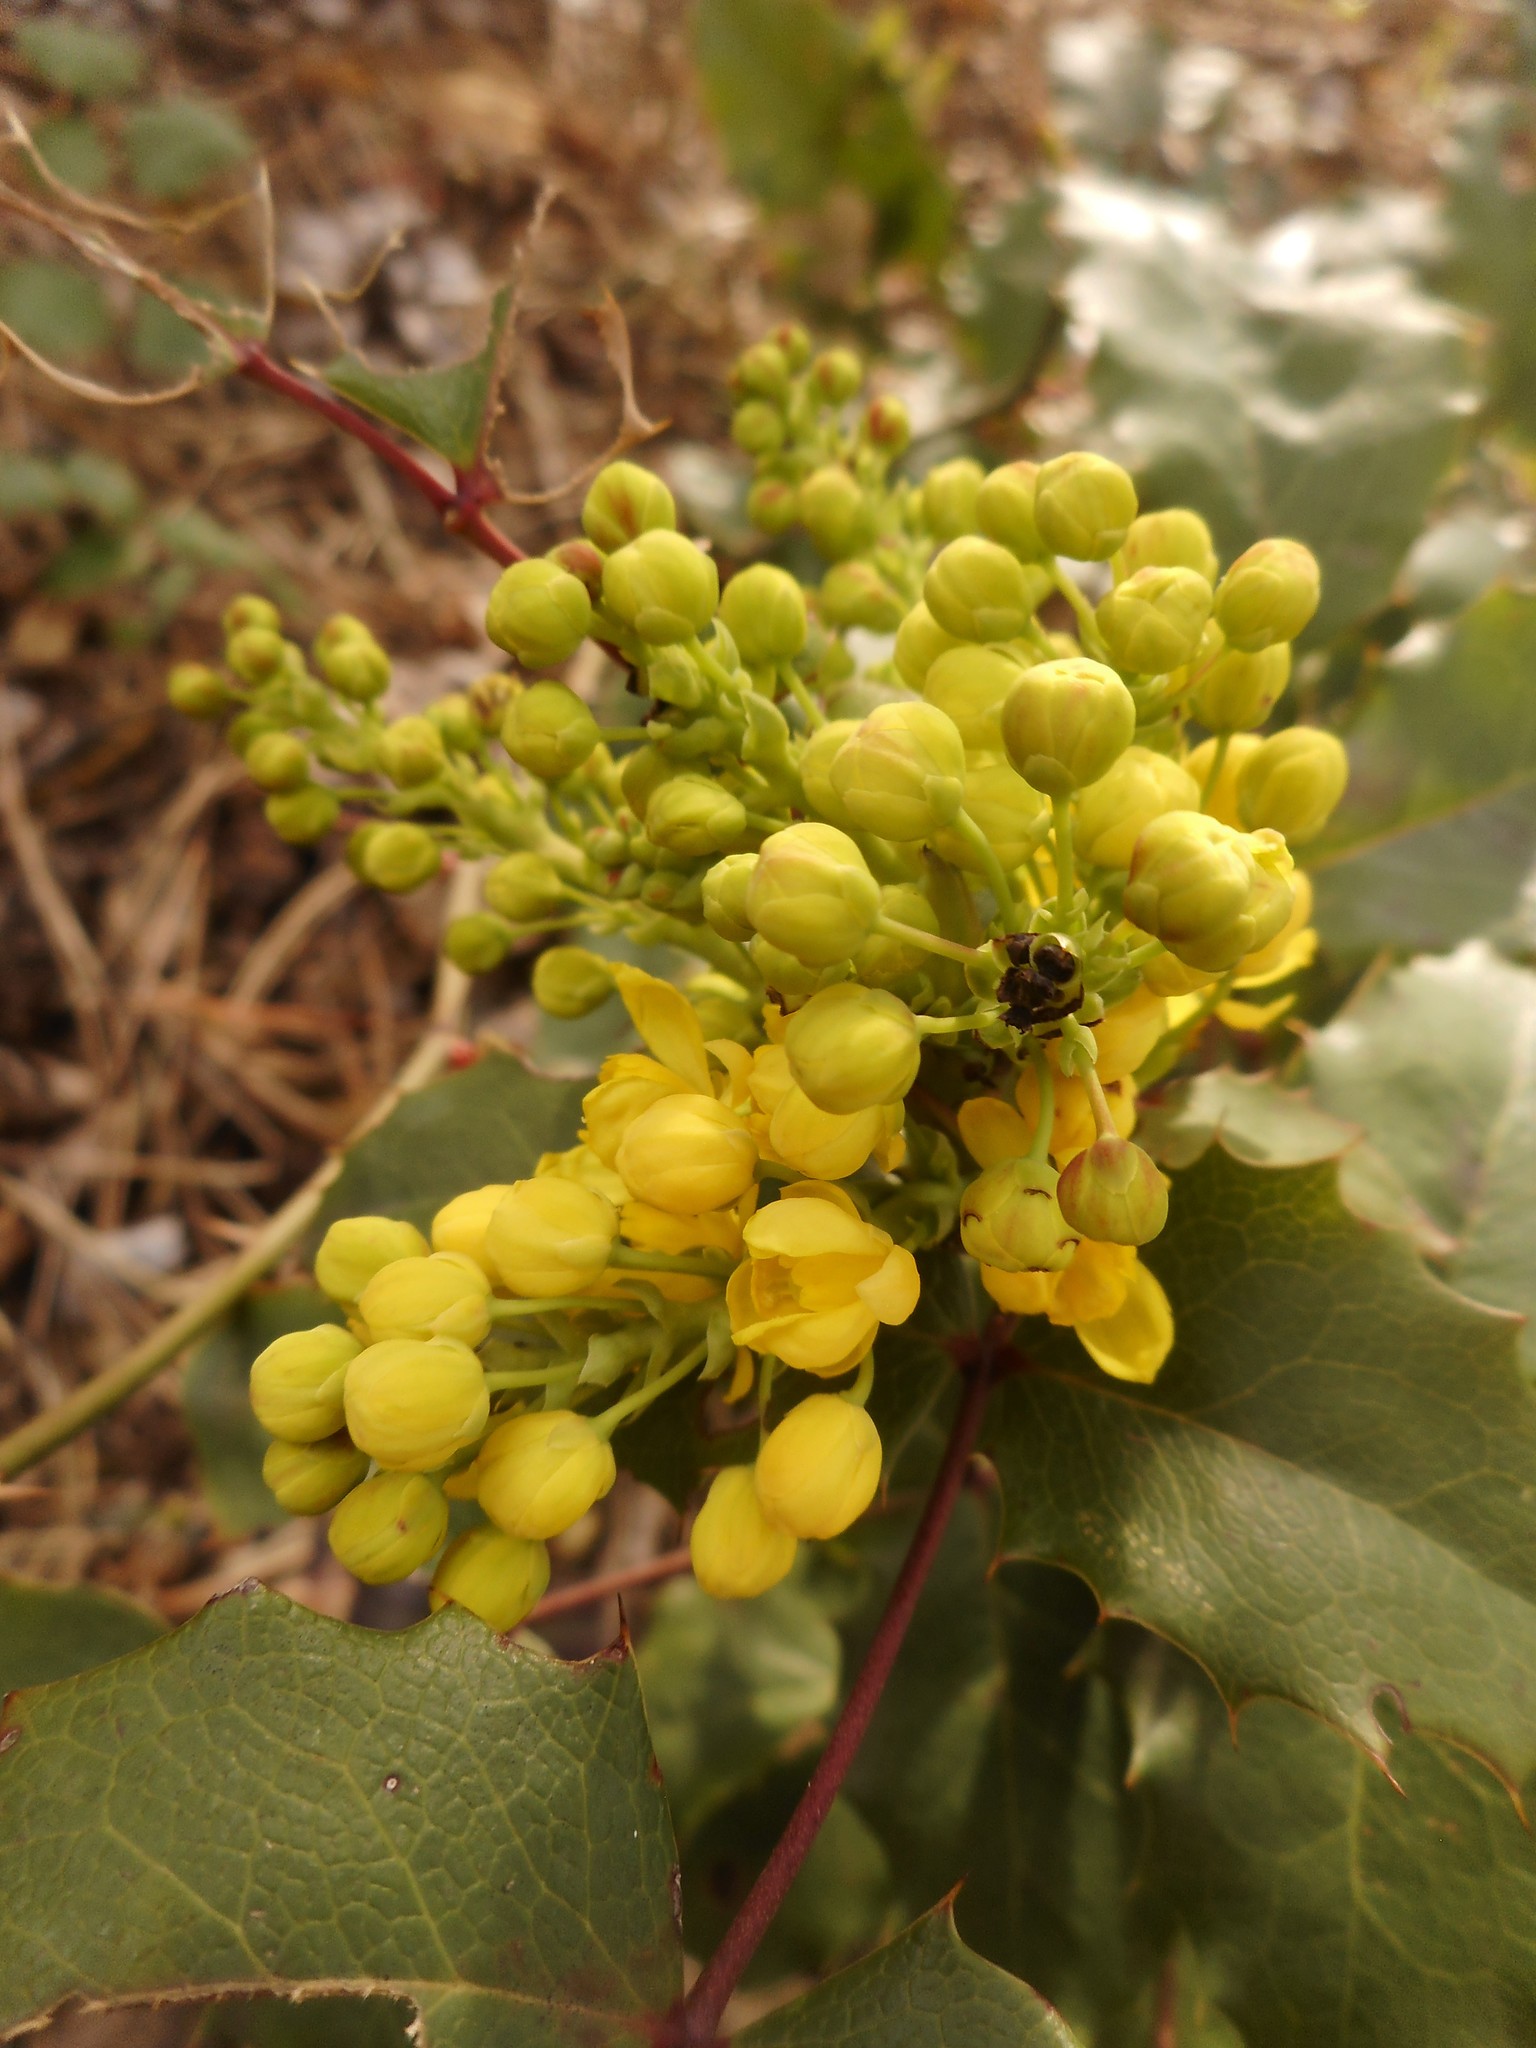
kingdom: Plantae
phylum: Tracheophyta
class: Magnoliopsida
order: Ranunculales
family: Berberidaceae
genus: Mahonia
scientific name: Mahonia aquifolium
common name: Oregon-grape
